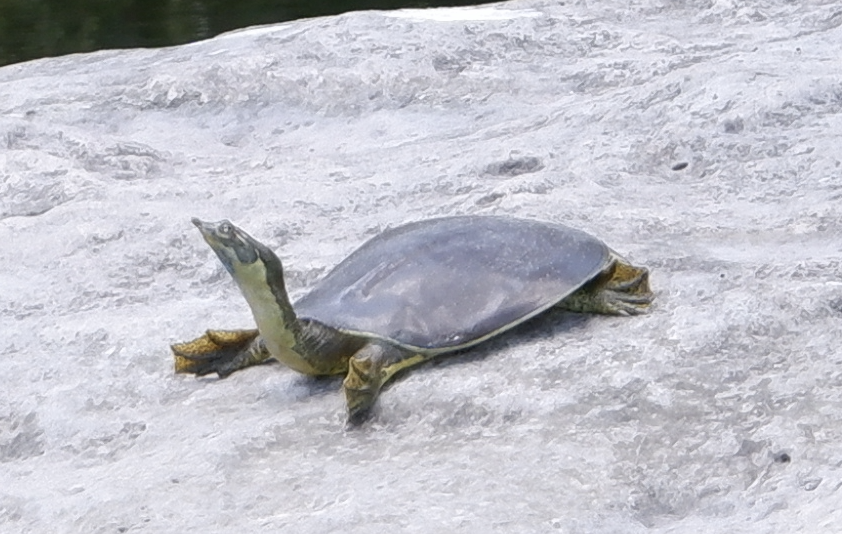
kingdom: Animalia
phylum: Chordata
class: Testudines
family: Trionychidae
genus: Apalone
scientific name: Apalone spinifera
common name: Spiny softshell turtle
